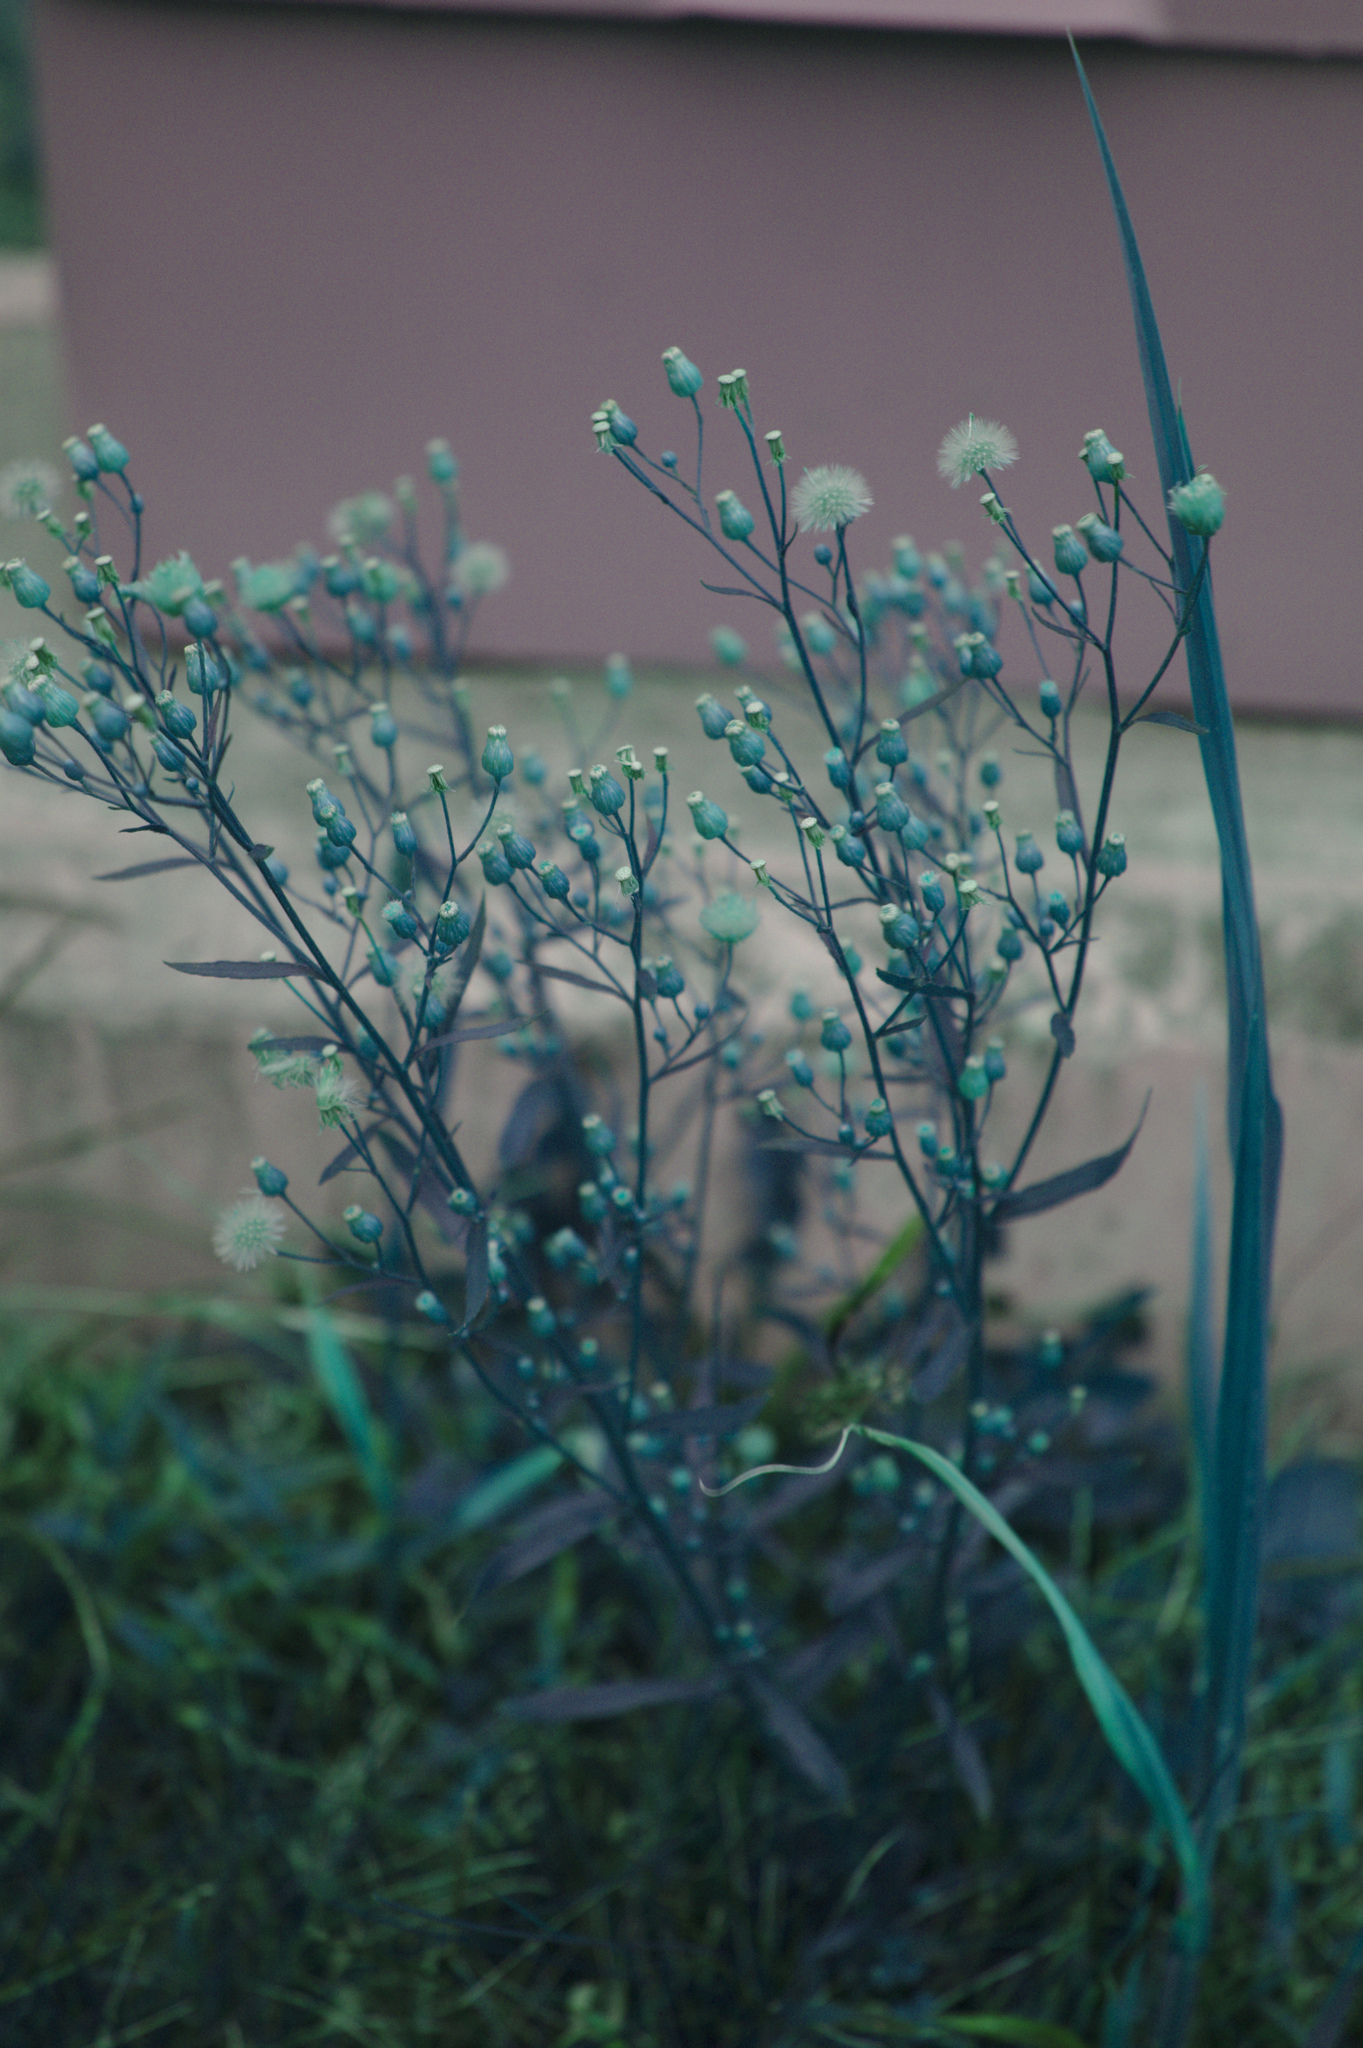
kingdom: Plantae
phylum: Tracheophyta
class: Magnoliopsida
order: Asterales
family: Asteraceae
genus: Erigeron
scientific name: Erigeron canadensis
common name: Canadian fleabane
